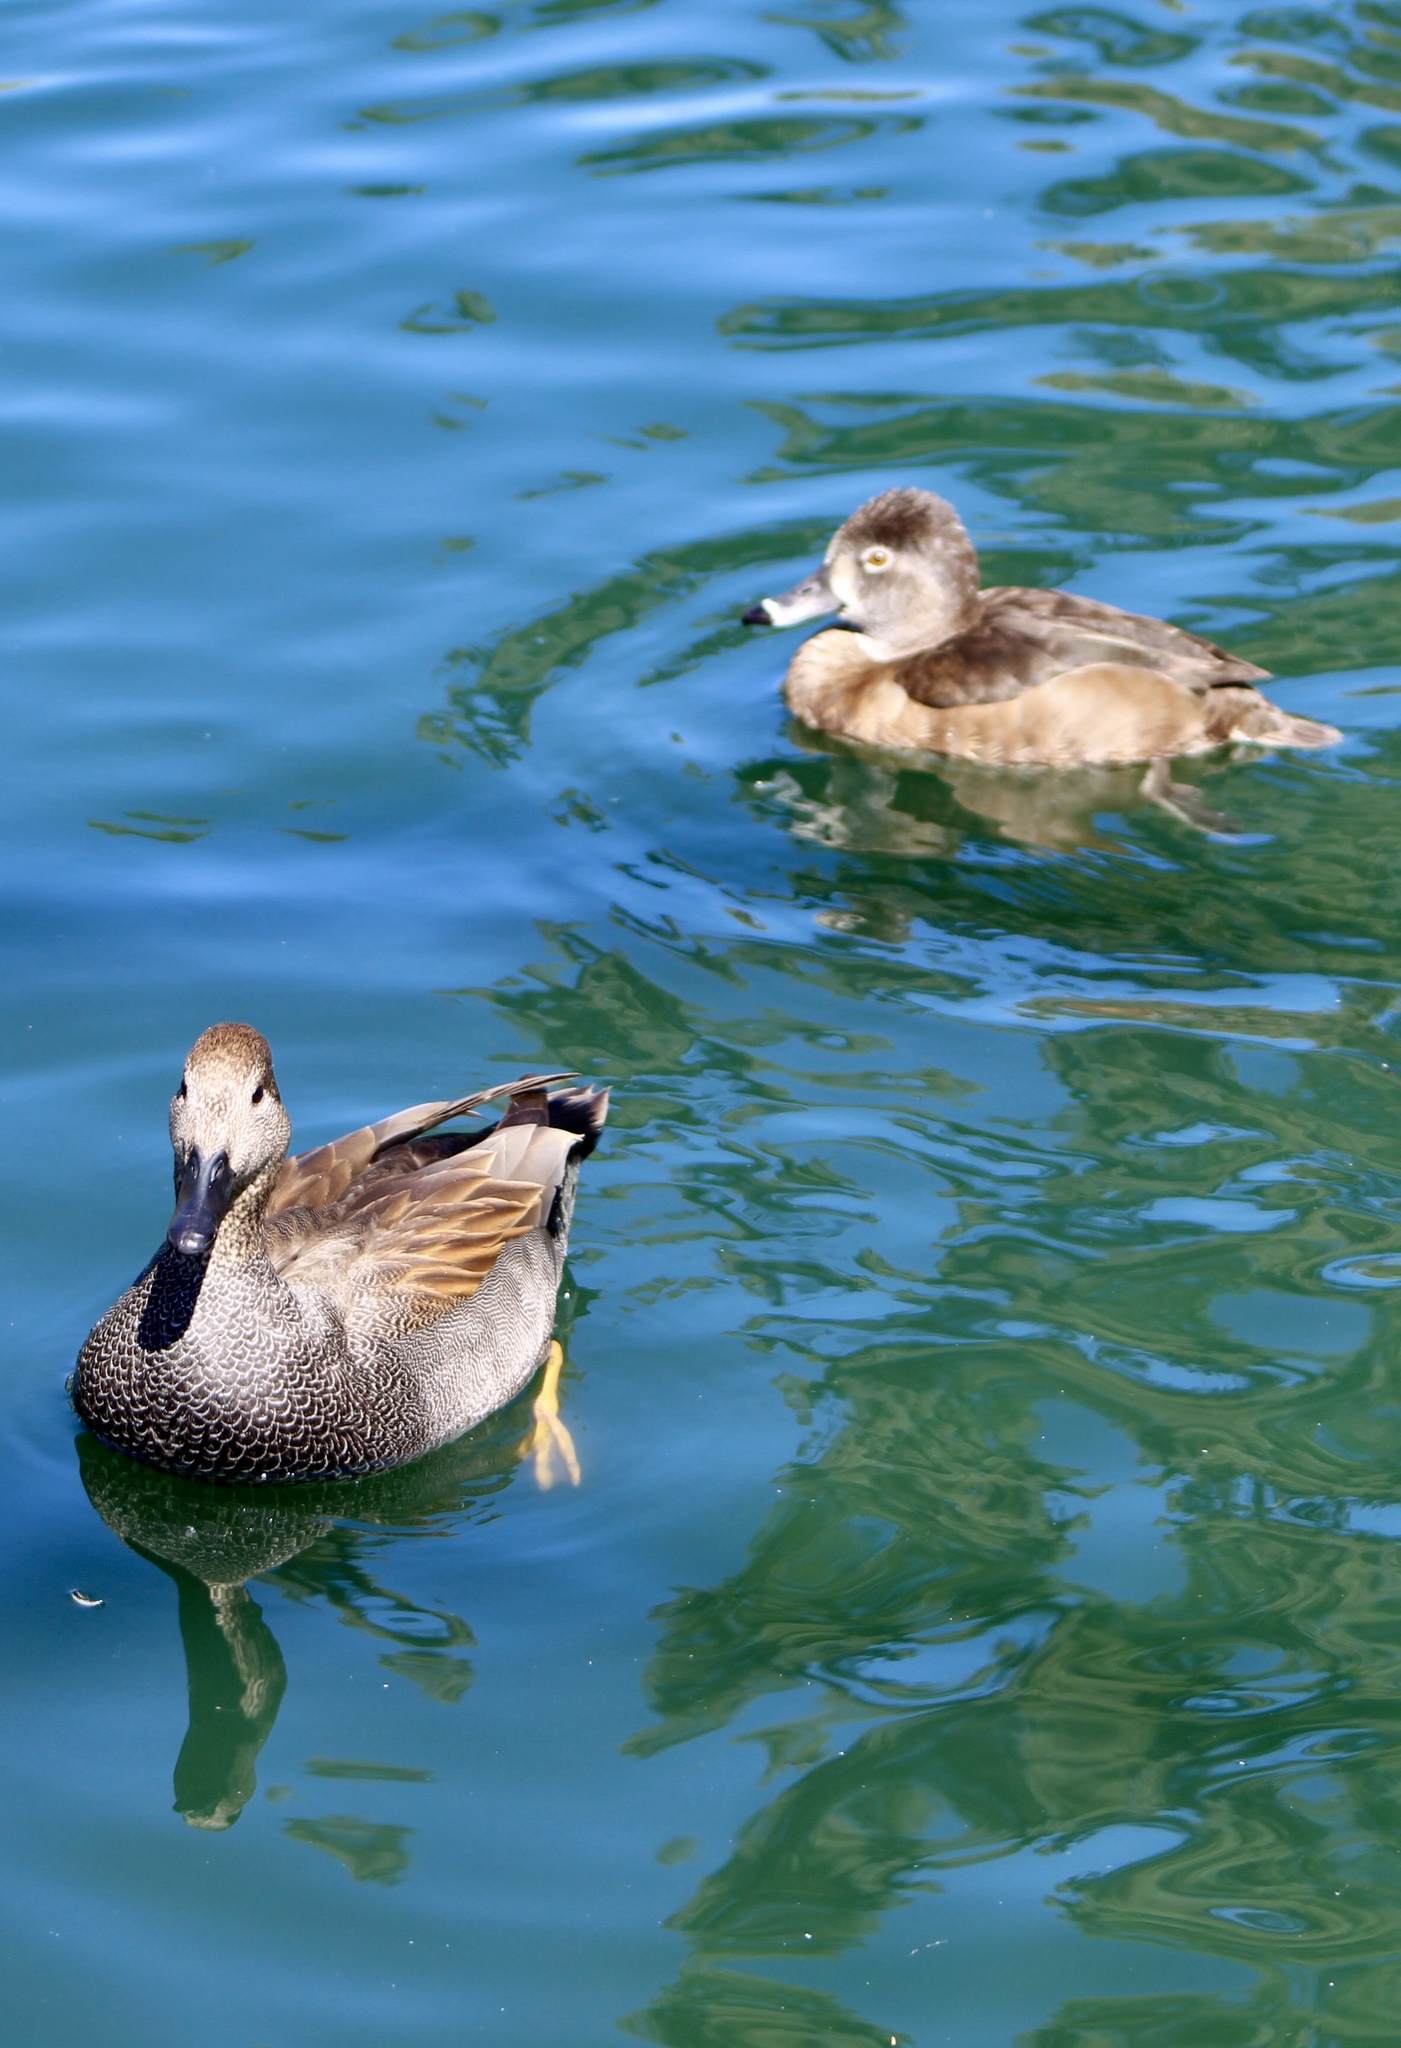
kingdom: Animalia
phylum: Chordata
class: Aves
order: Anseriformes
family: Anatidae
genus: Mareca
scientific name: Mareca strepera
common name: Gadwall
